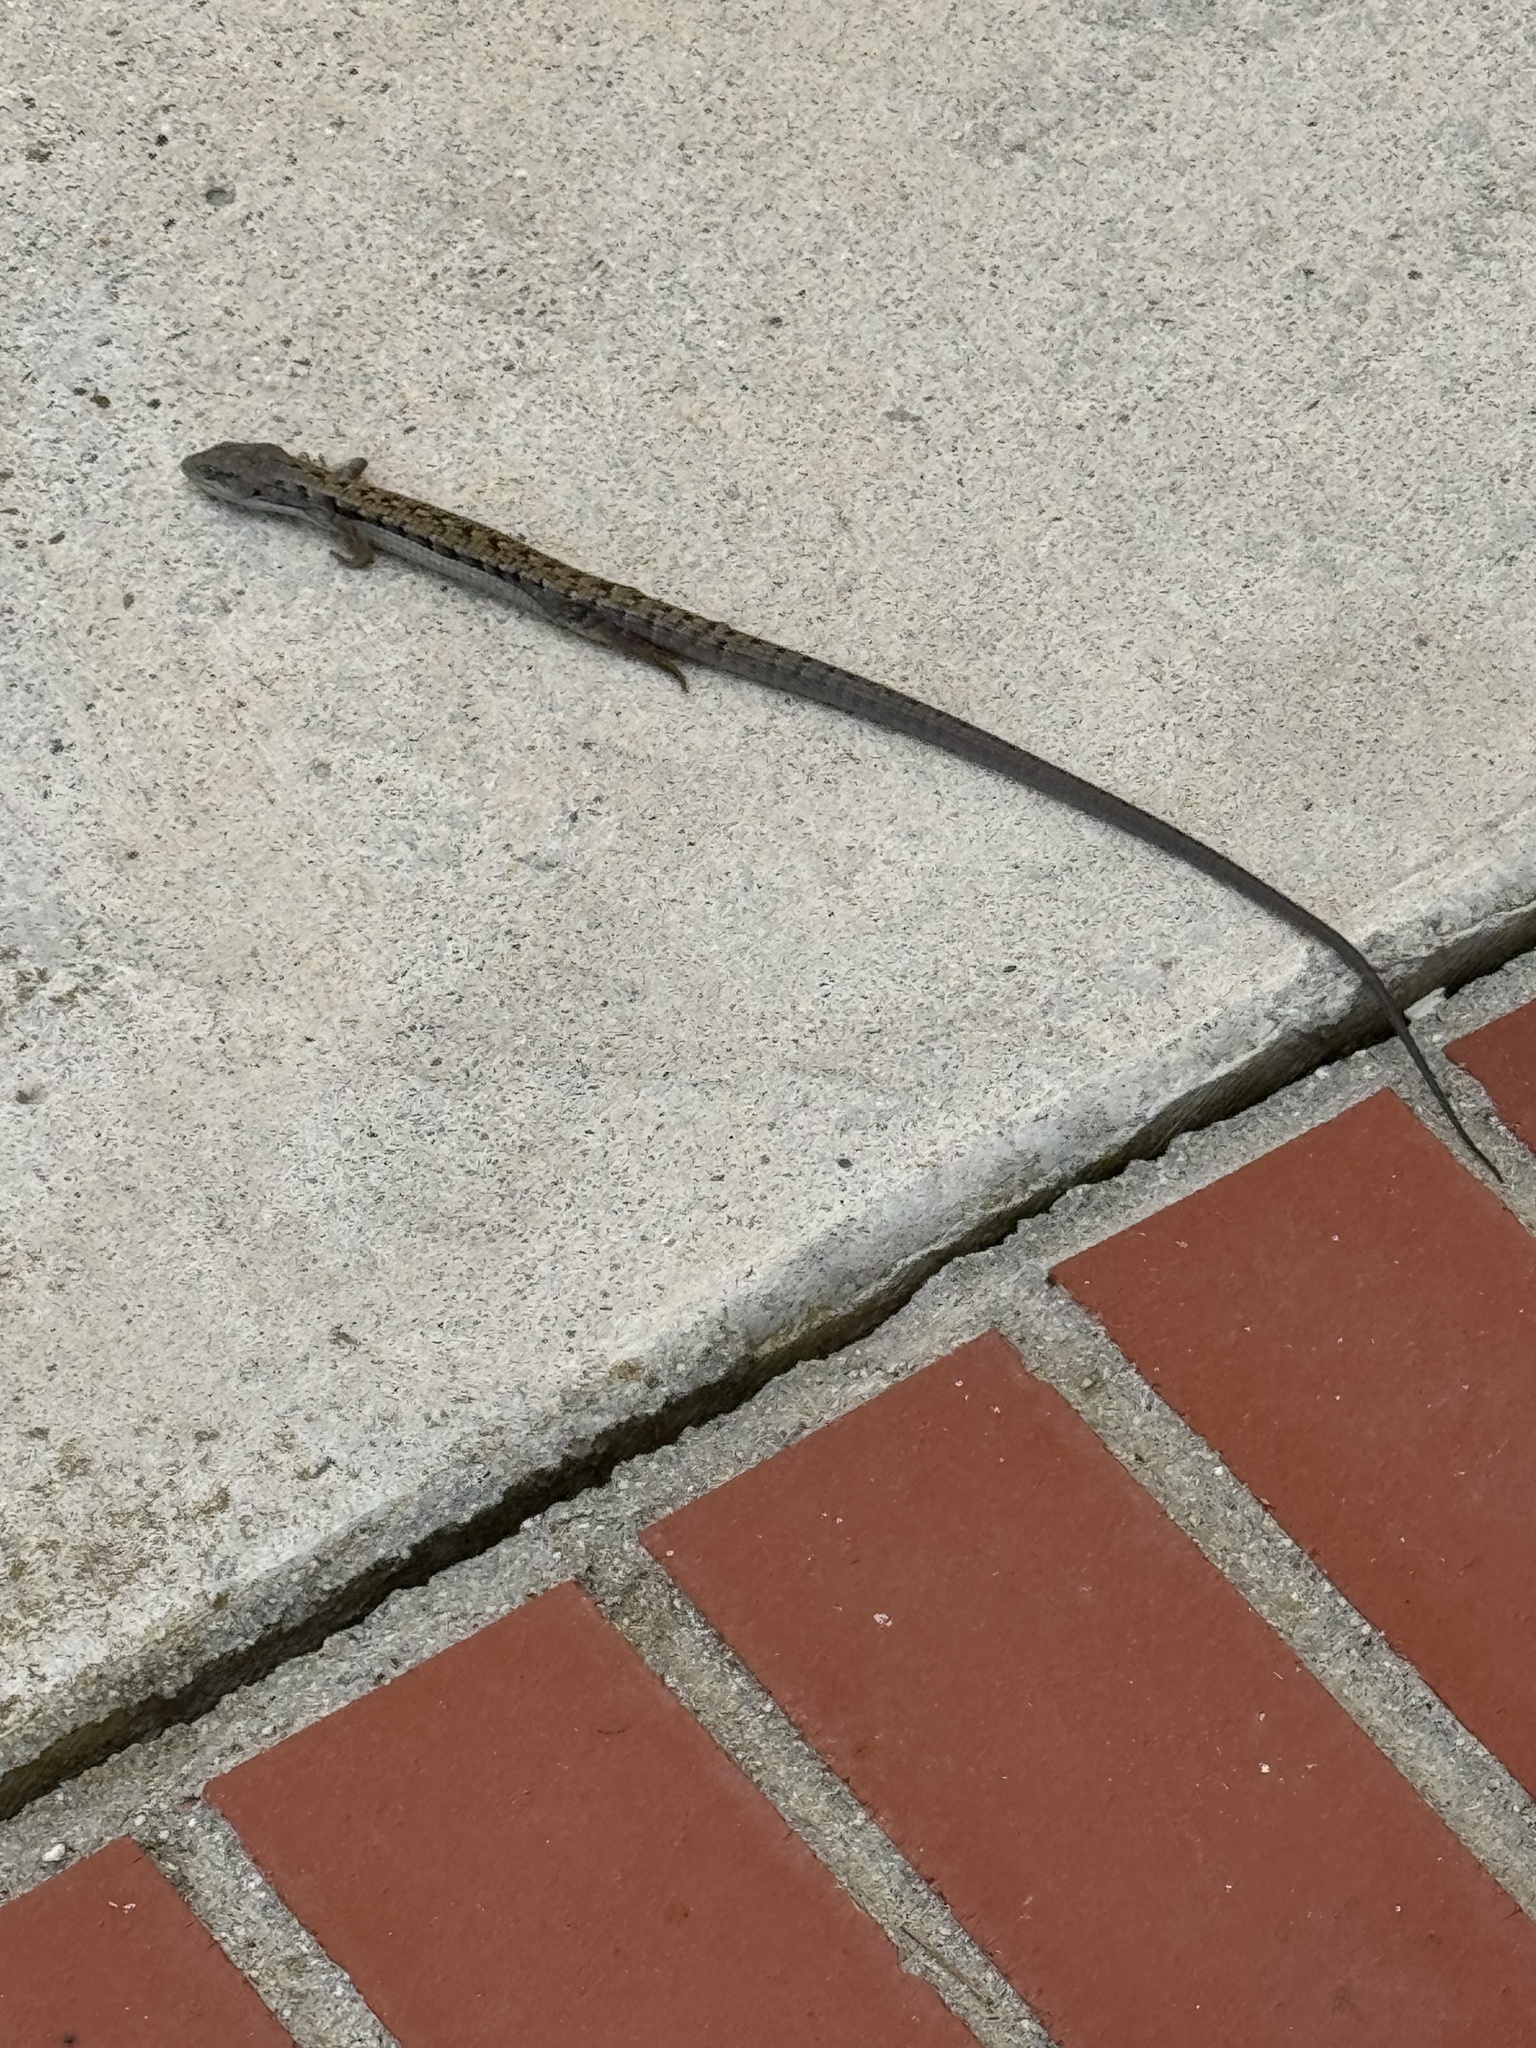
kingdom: Animalia
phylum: Chordata
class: Squamata
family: Anguidae
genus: Elgaria
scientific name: Elgaria multicarinata
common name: Southern alligator lizard
